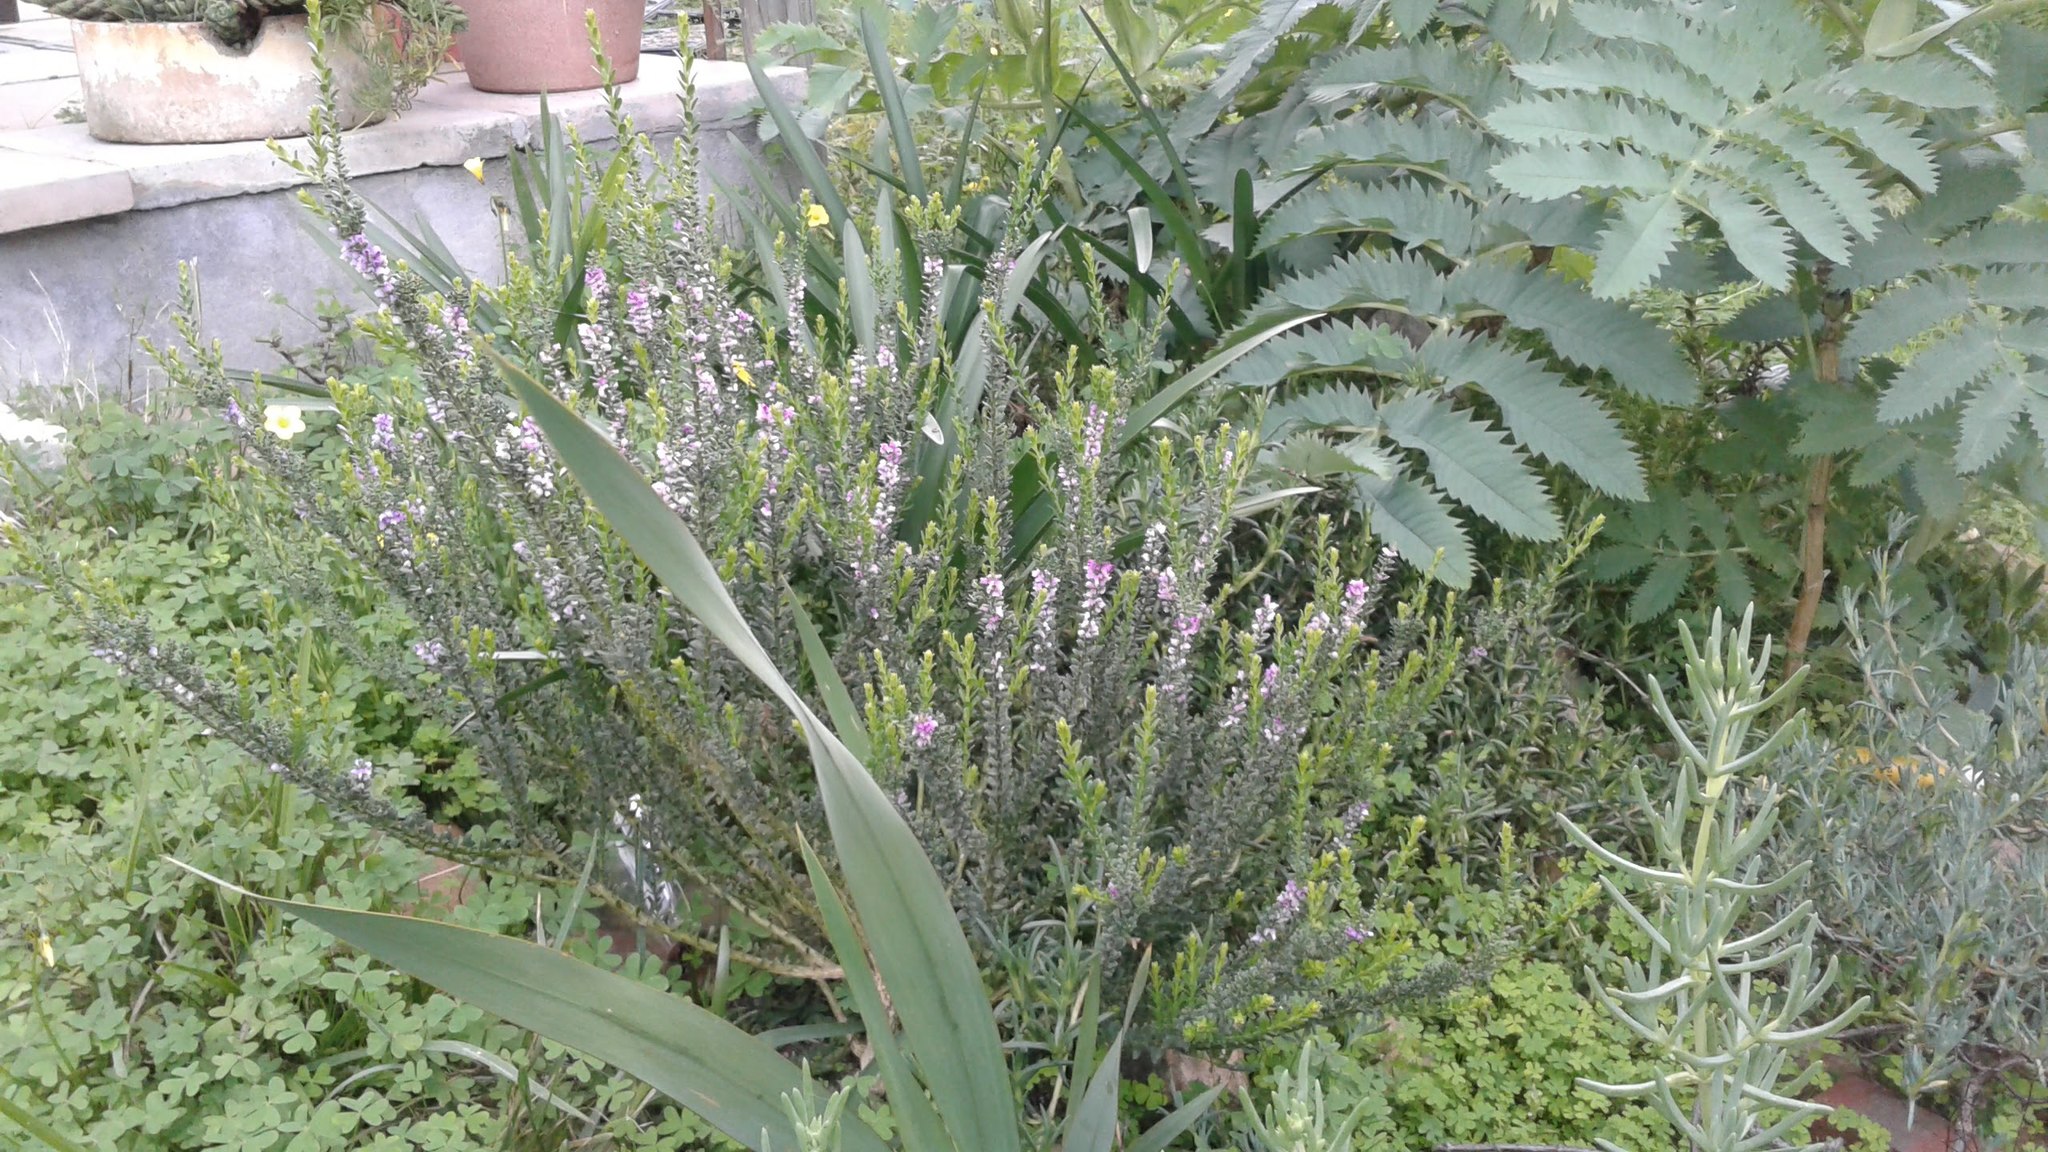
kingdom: Plantae
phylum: Tracheophyta
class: Magnoliopsida
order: Fabales
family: Polygalaceae
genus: Muraltia
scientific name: Muraltia spinosa
